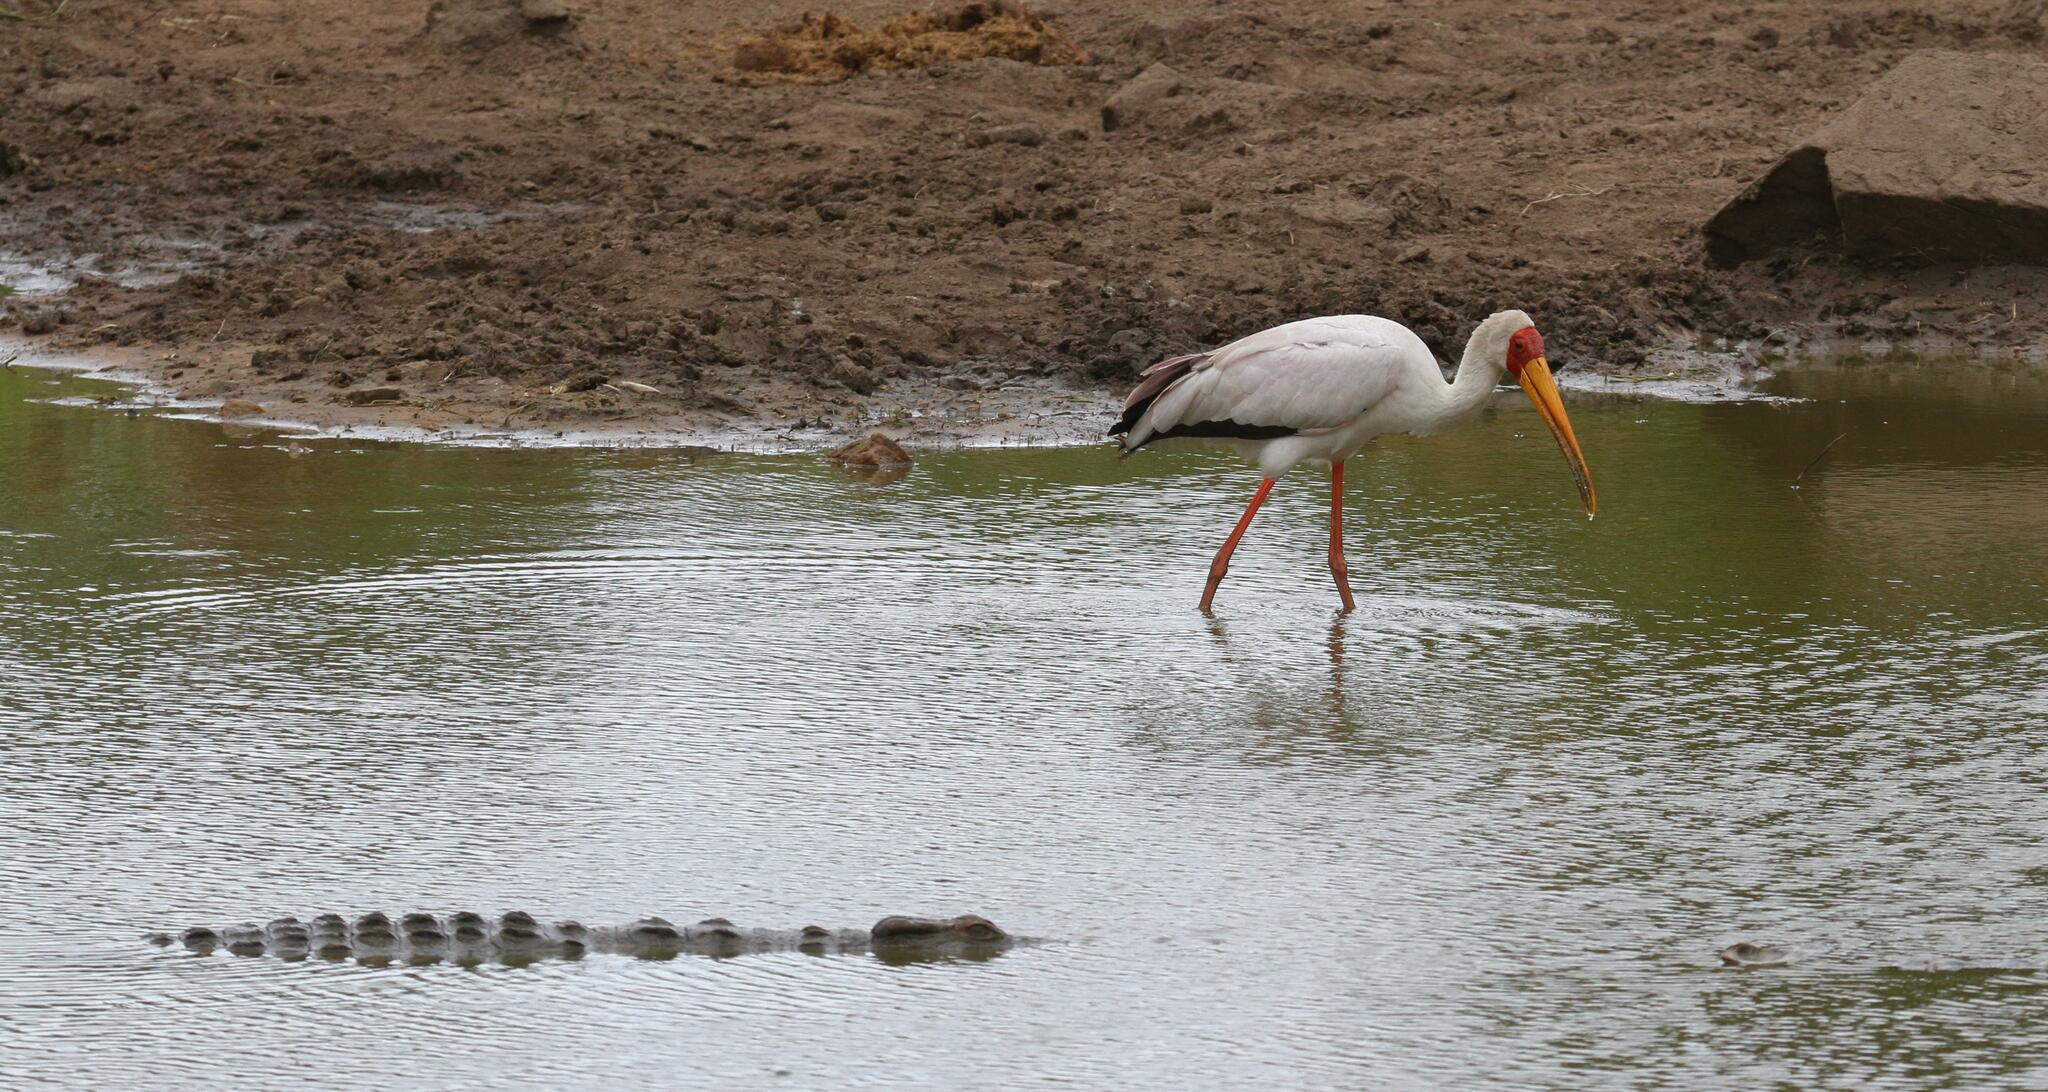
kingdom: Animalia
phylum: Chordata
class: Aves
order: Ciconiiformes
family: Ciconiidae
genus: Mycteria
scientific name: Mycteria ibis
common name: Yellow-billed stork
